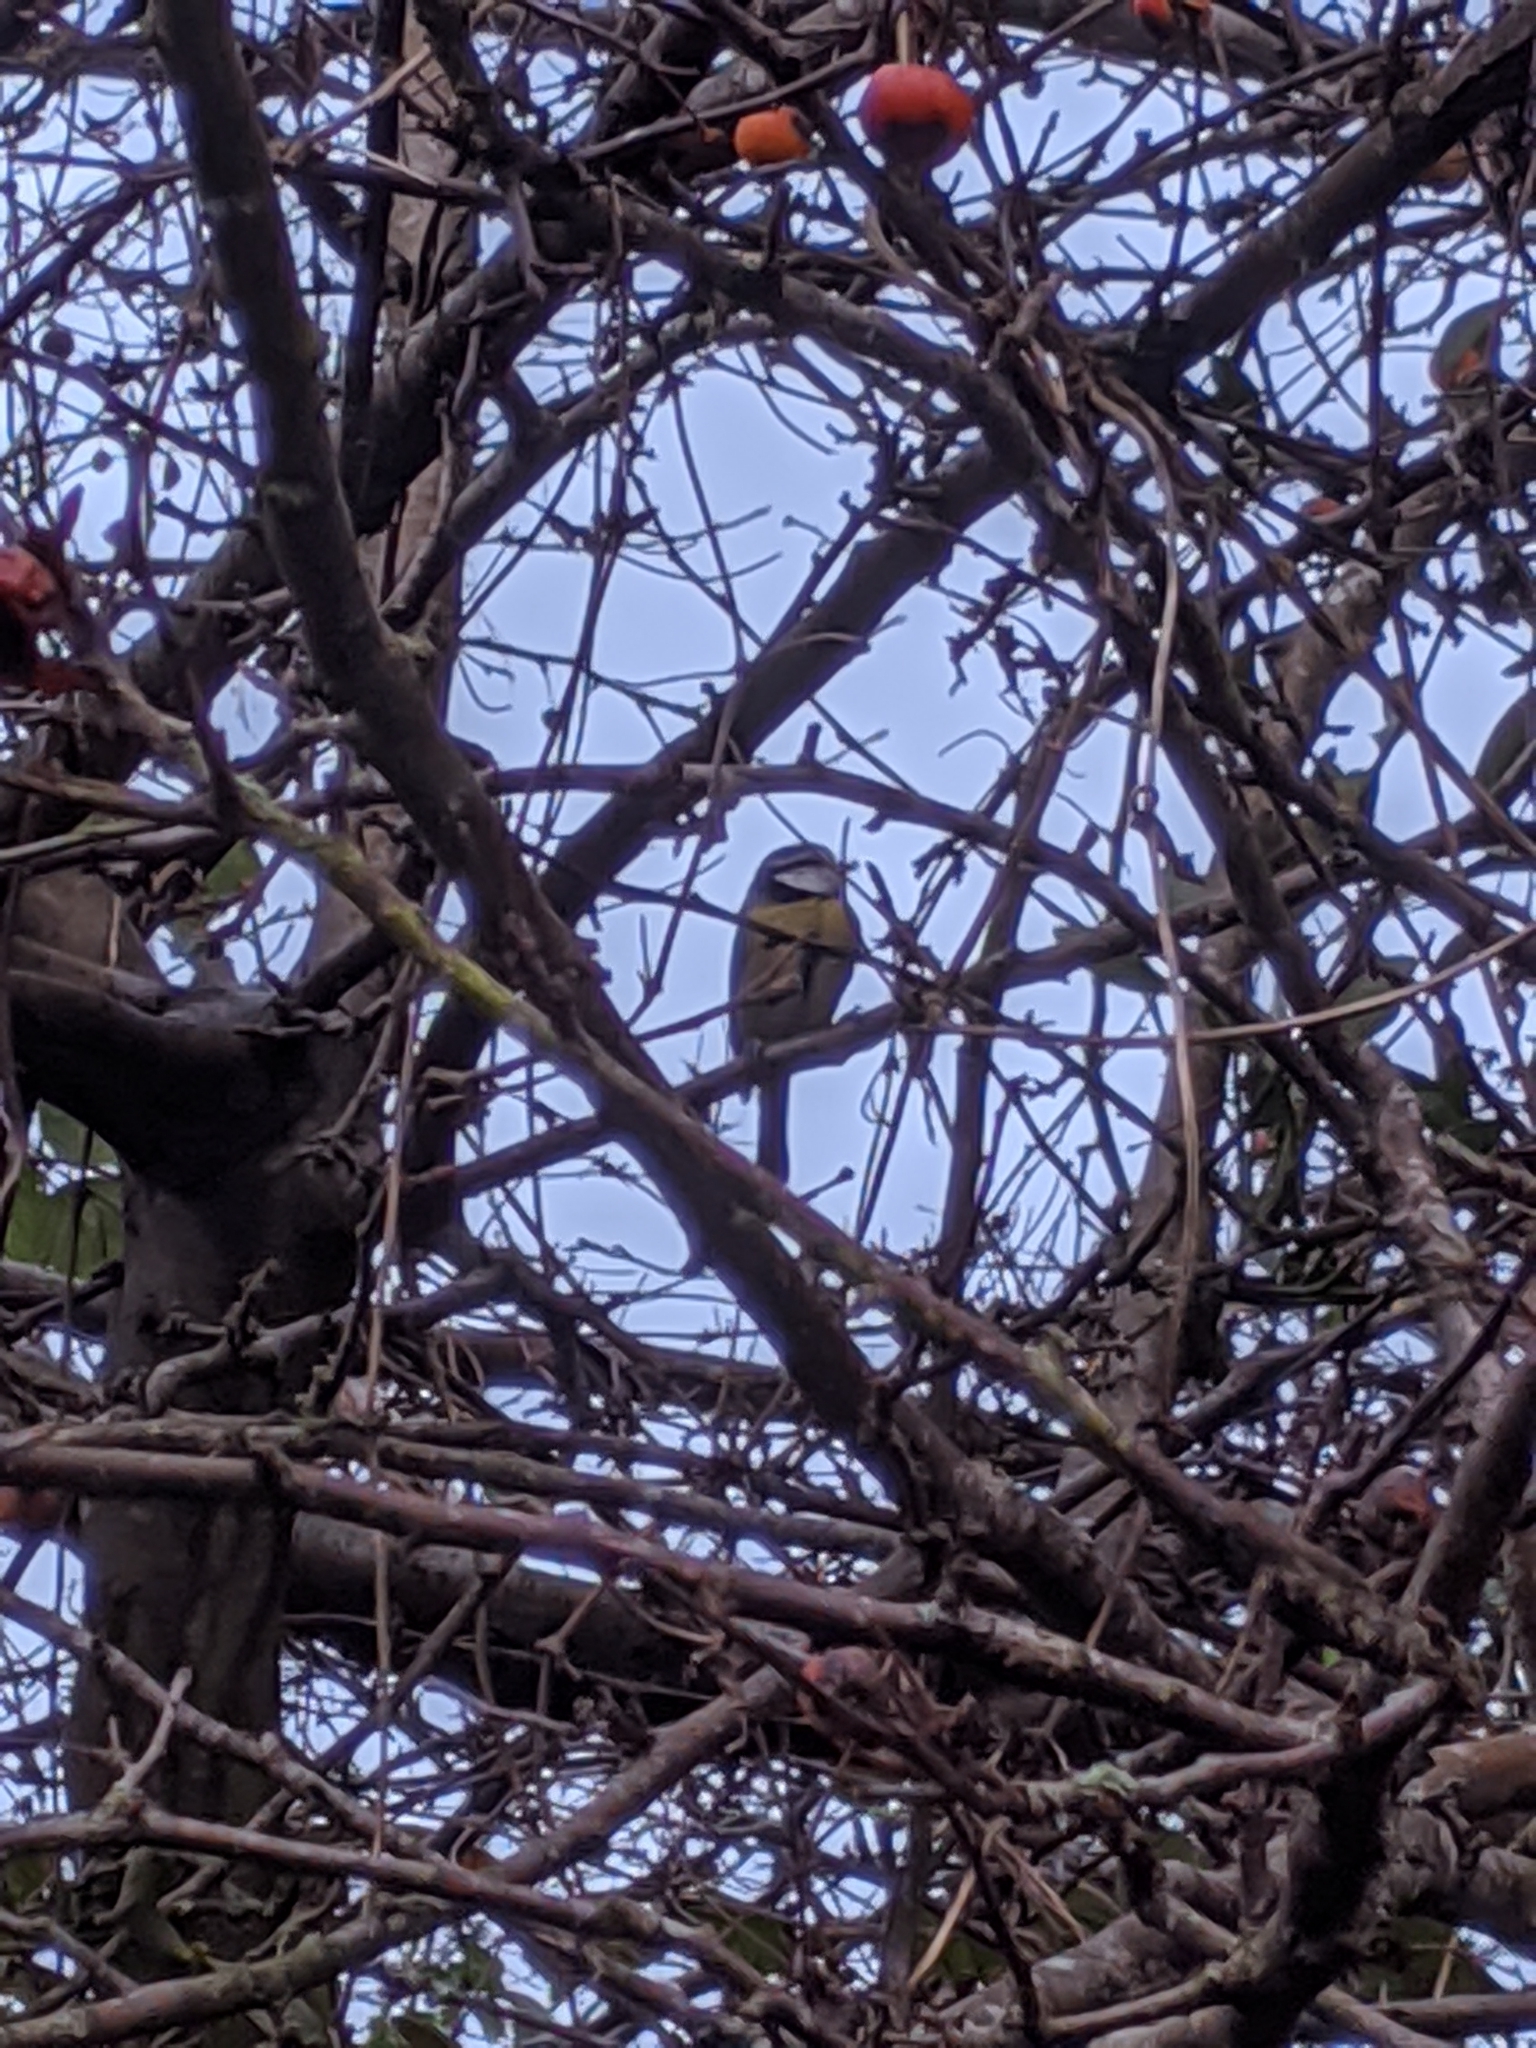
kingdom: Animalia
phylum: Chordata
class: Aves
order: Passeriformes
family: Paridae
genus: Cyanistes
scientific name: Cyanistes caeruleus
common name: Eurasian blue tit
